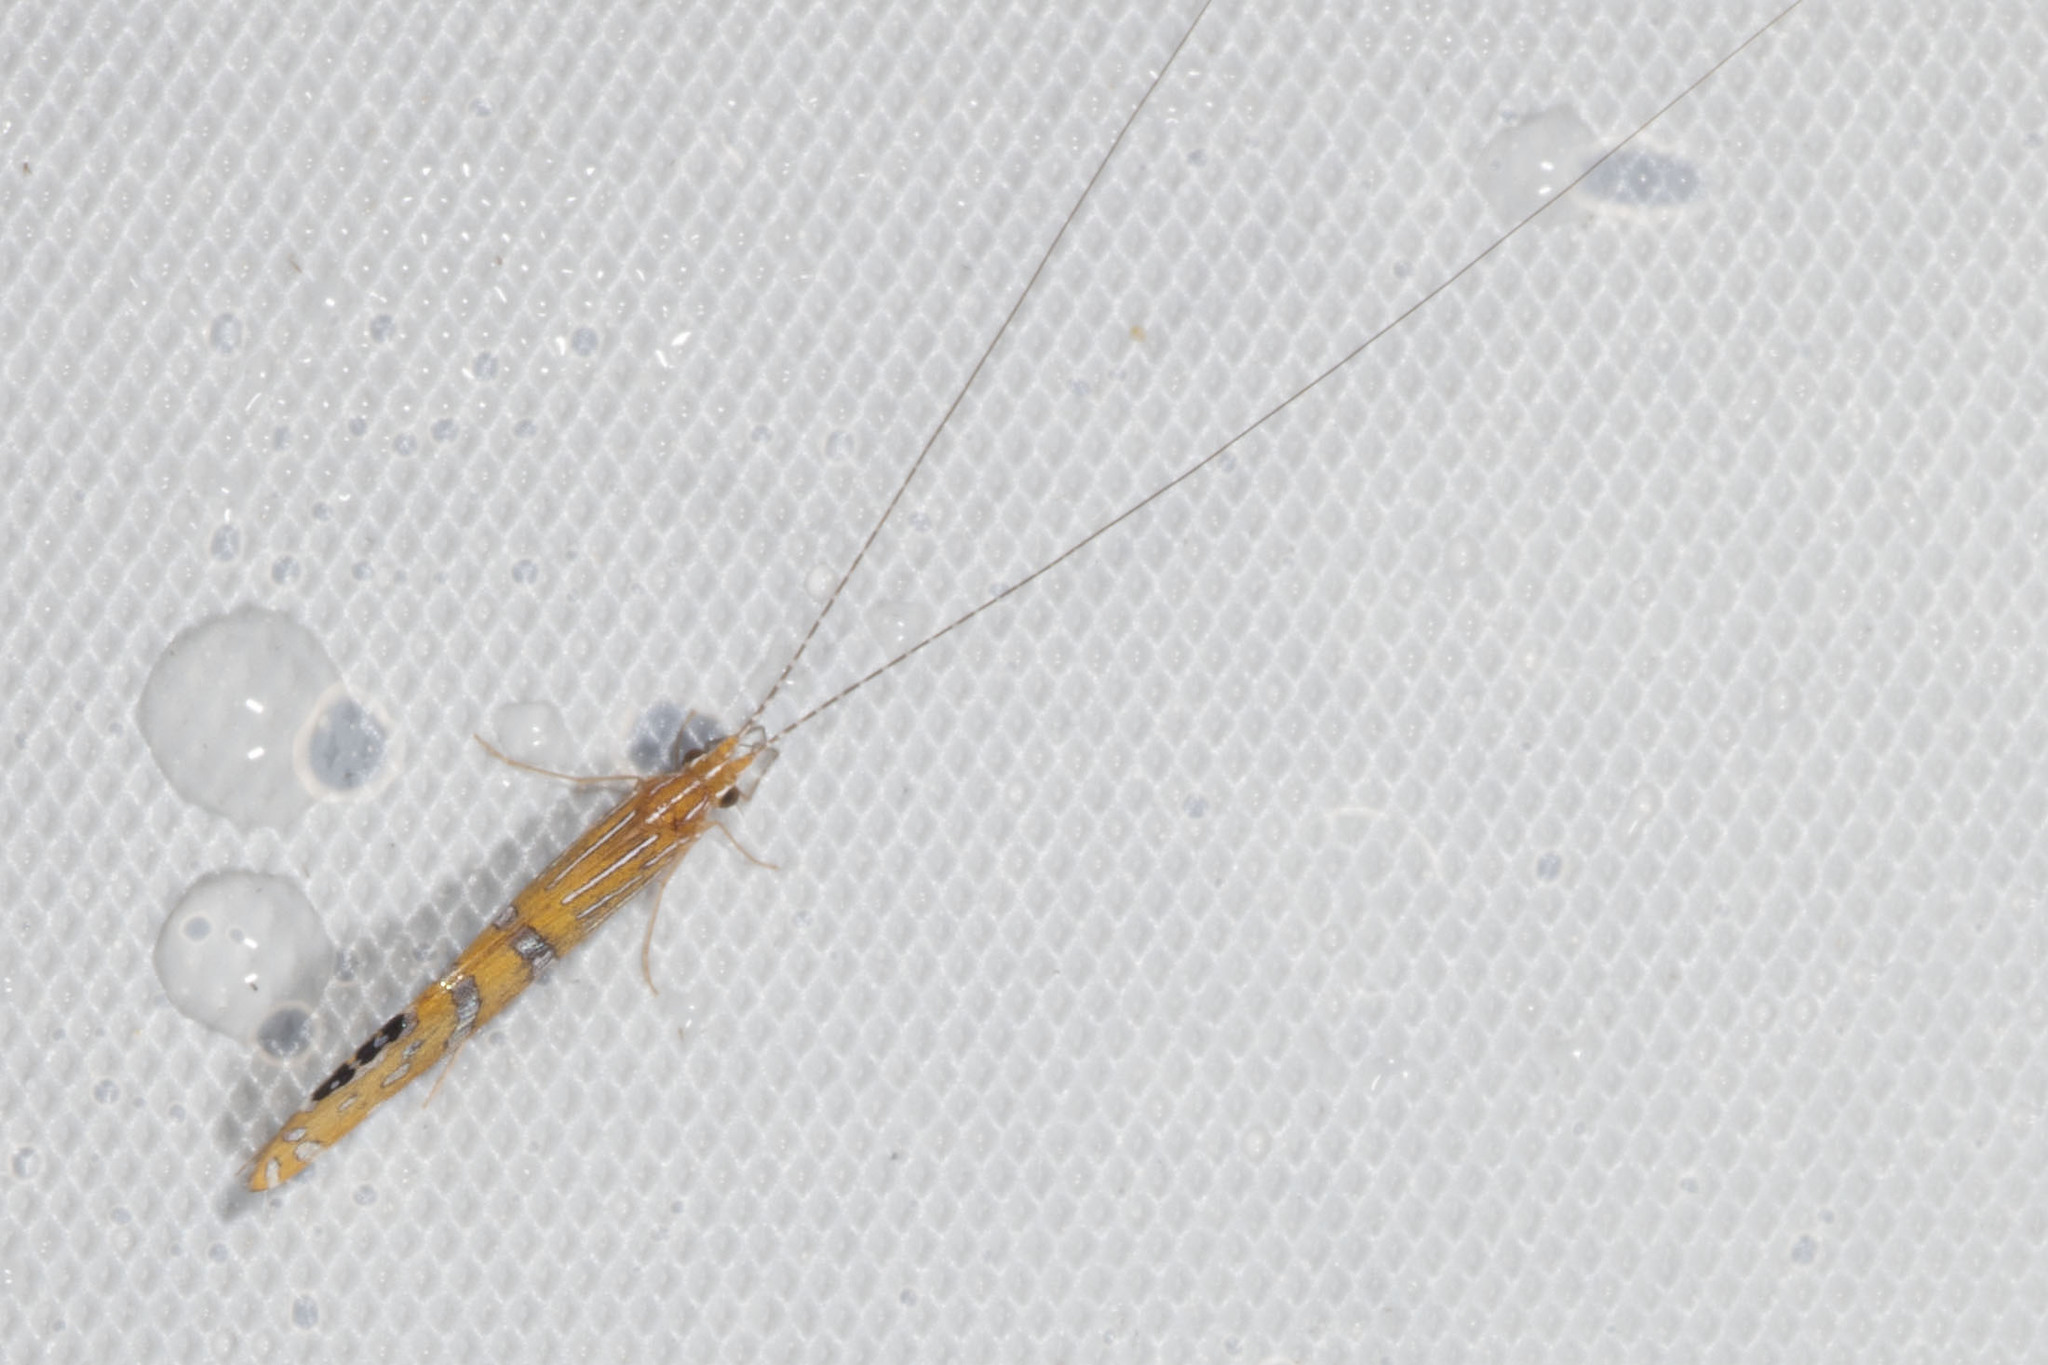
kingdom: Animalia
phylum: Arthropoda
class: Insecta
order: Trichoptera
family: Leptoceridae
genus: Nectopsyche
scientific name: Nectopsyche ortizi
